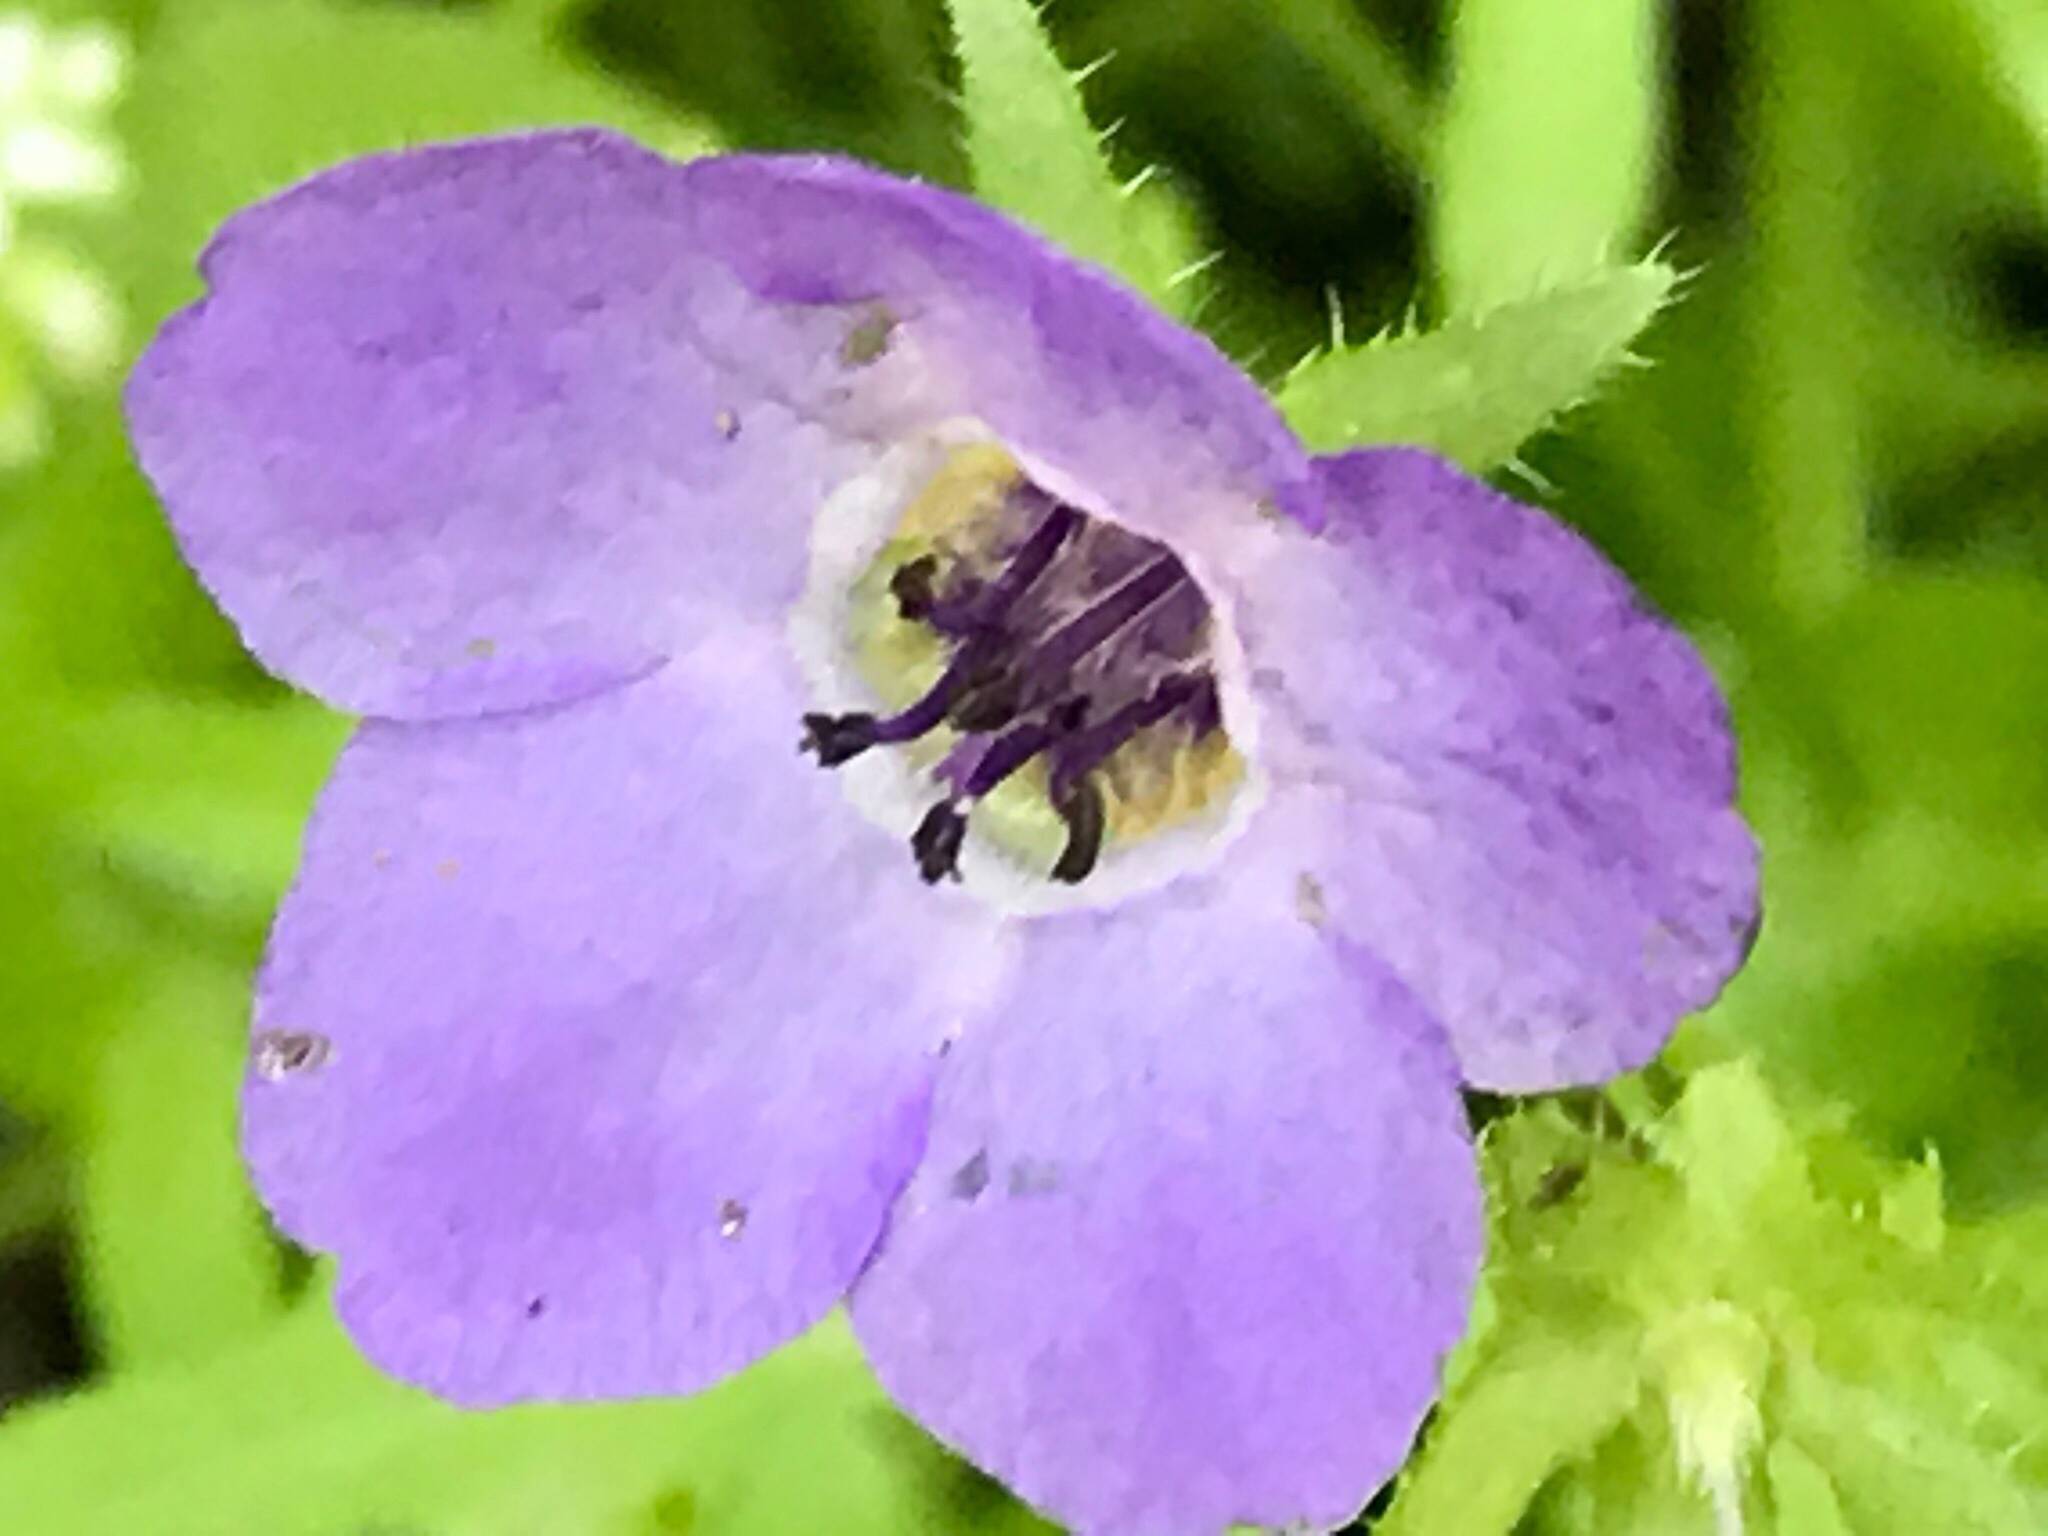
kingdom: Plantae
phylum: Tracheophyta
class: Magnoliopsida
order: Boraginales
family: Hydrophyllaceae
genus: Pholistoma
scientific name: Pholistoma auritum
